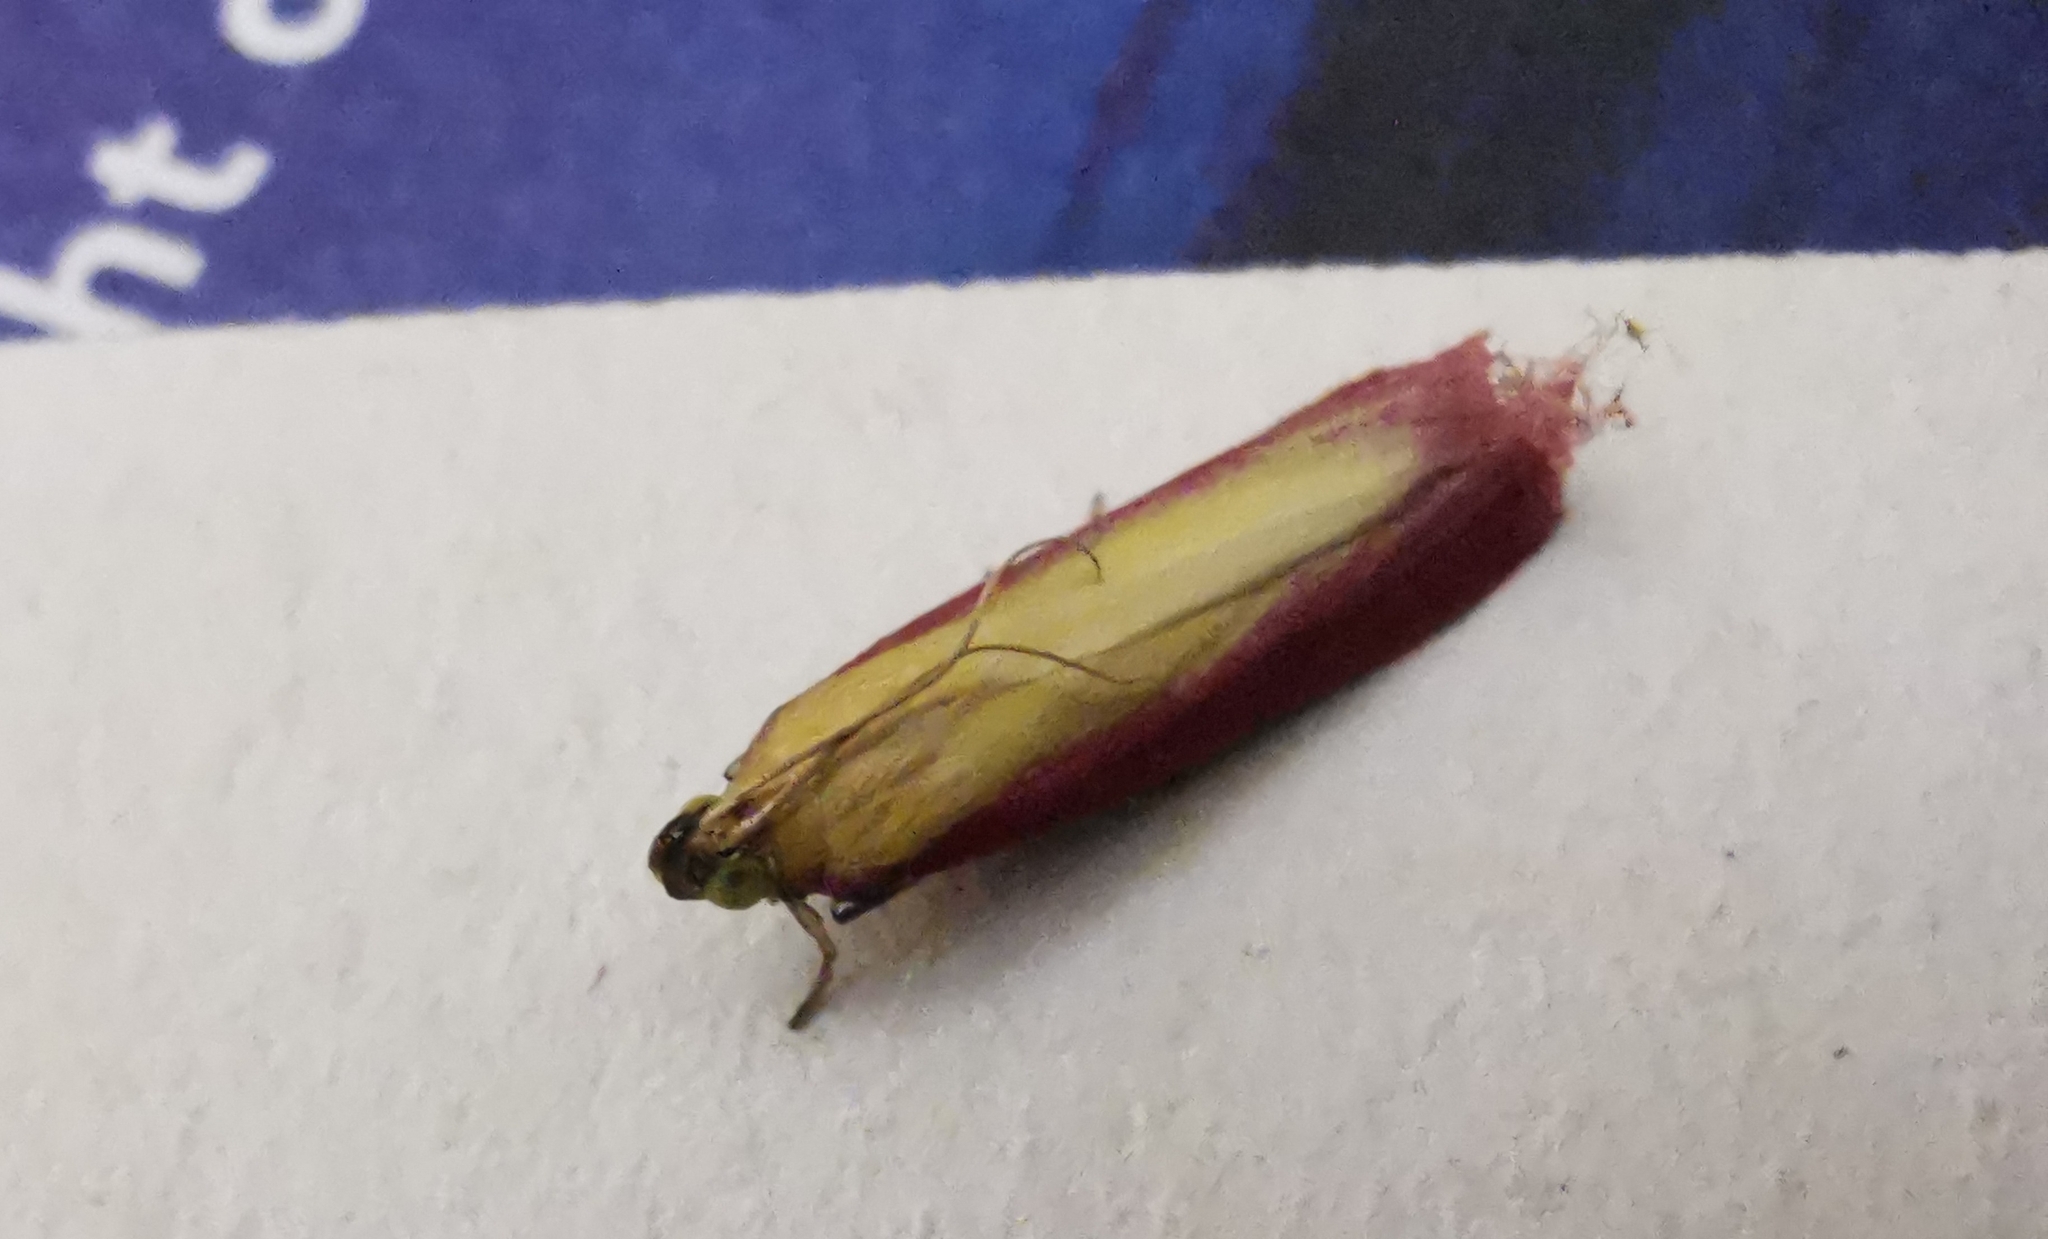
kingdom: Animalia
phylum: Arthropoda
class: Insecta
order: Lepidoptera
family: Pyralidae
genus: Oncocera
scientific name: Oncocera semirubella
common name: Rosy-striped knot-horn
